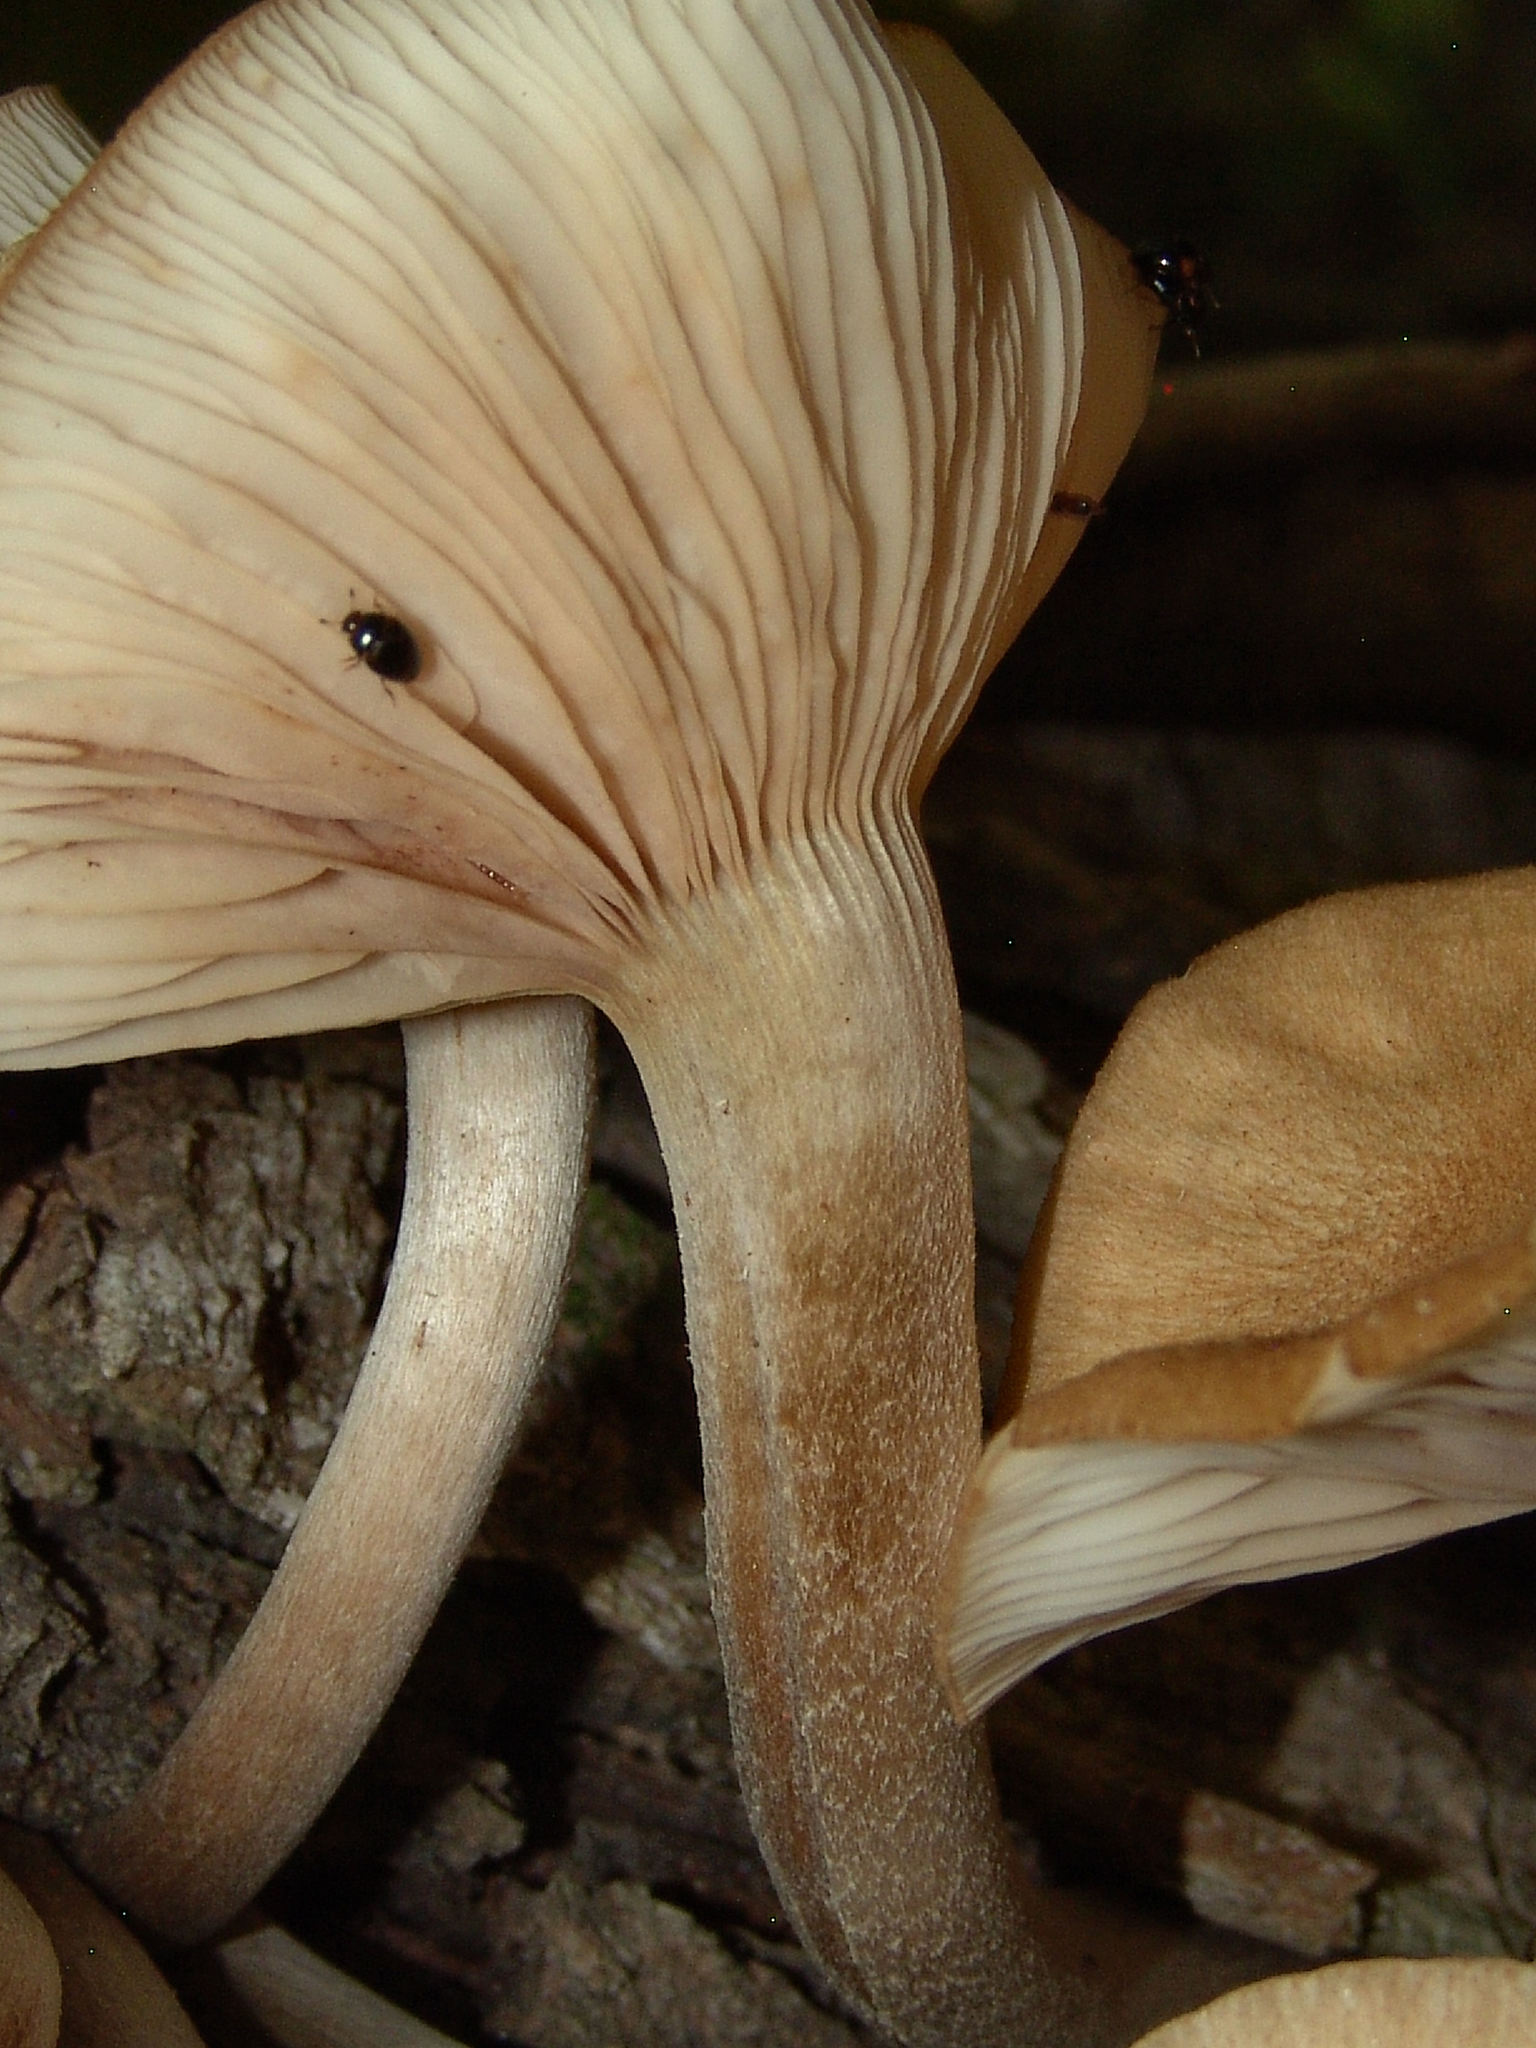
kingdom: Fungi
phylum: Basidiomycota
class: Agaricomycetes
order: Agaricales
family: Physalacriaceae
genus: Desarmillaria
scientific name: Desarmillaria caespitosa
